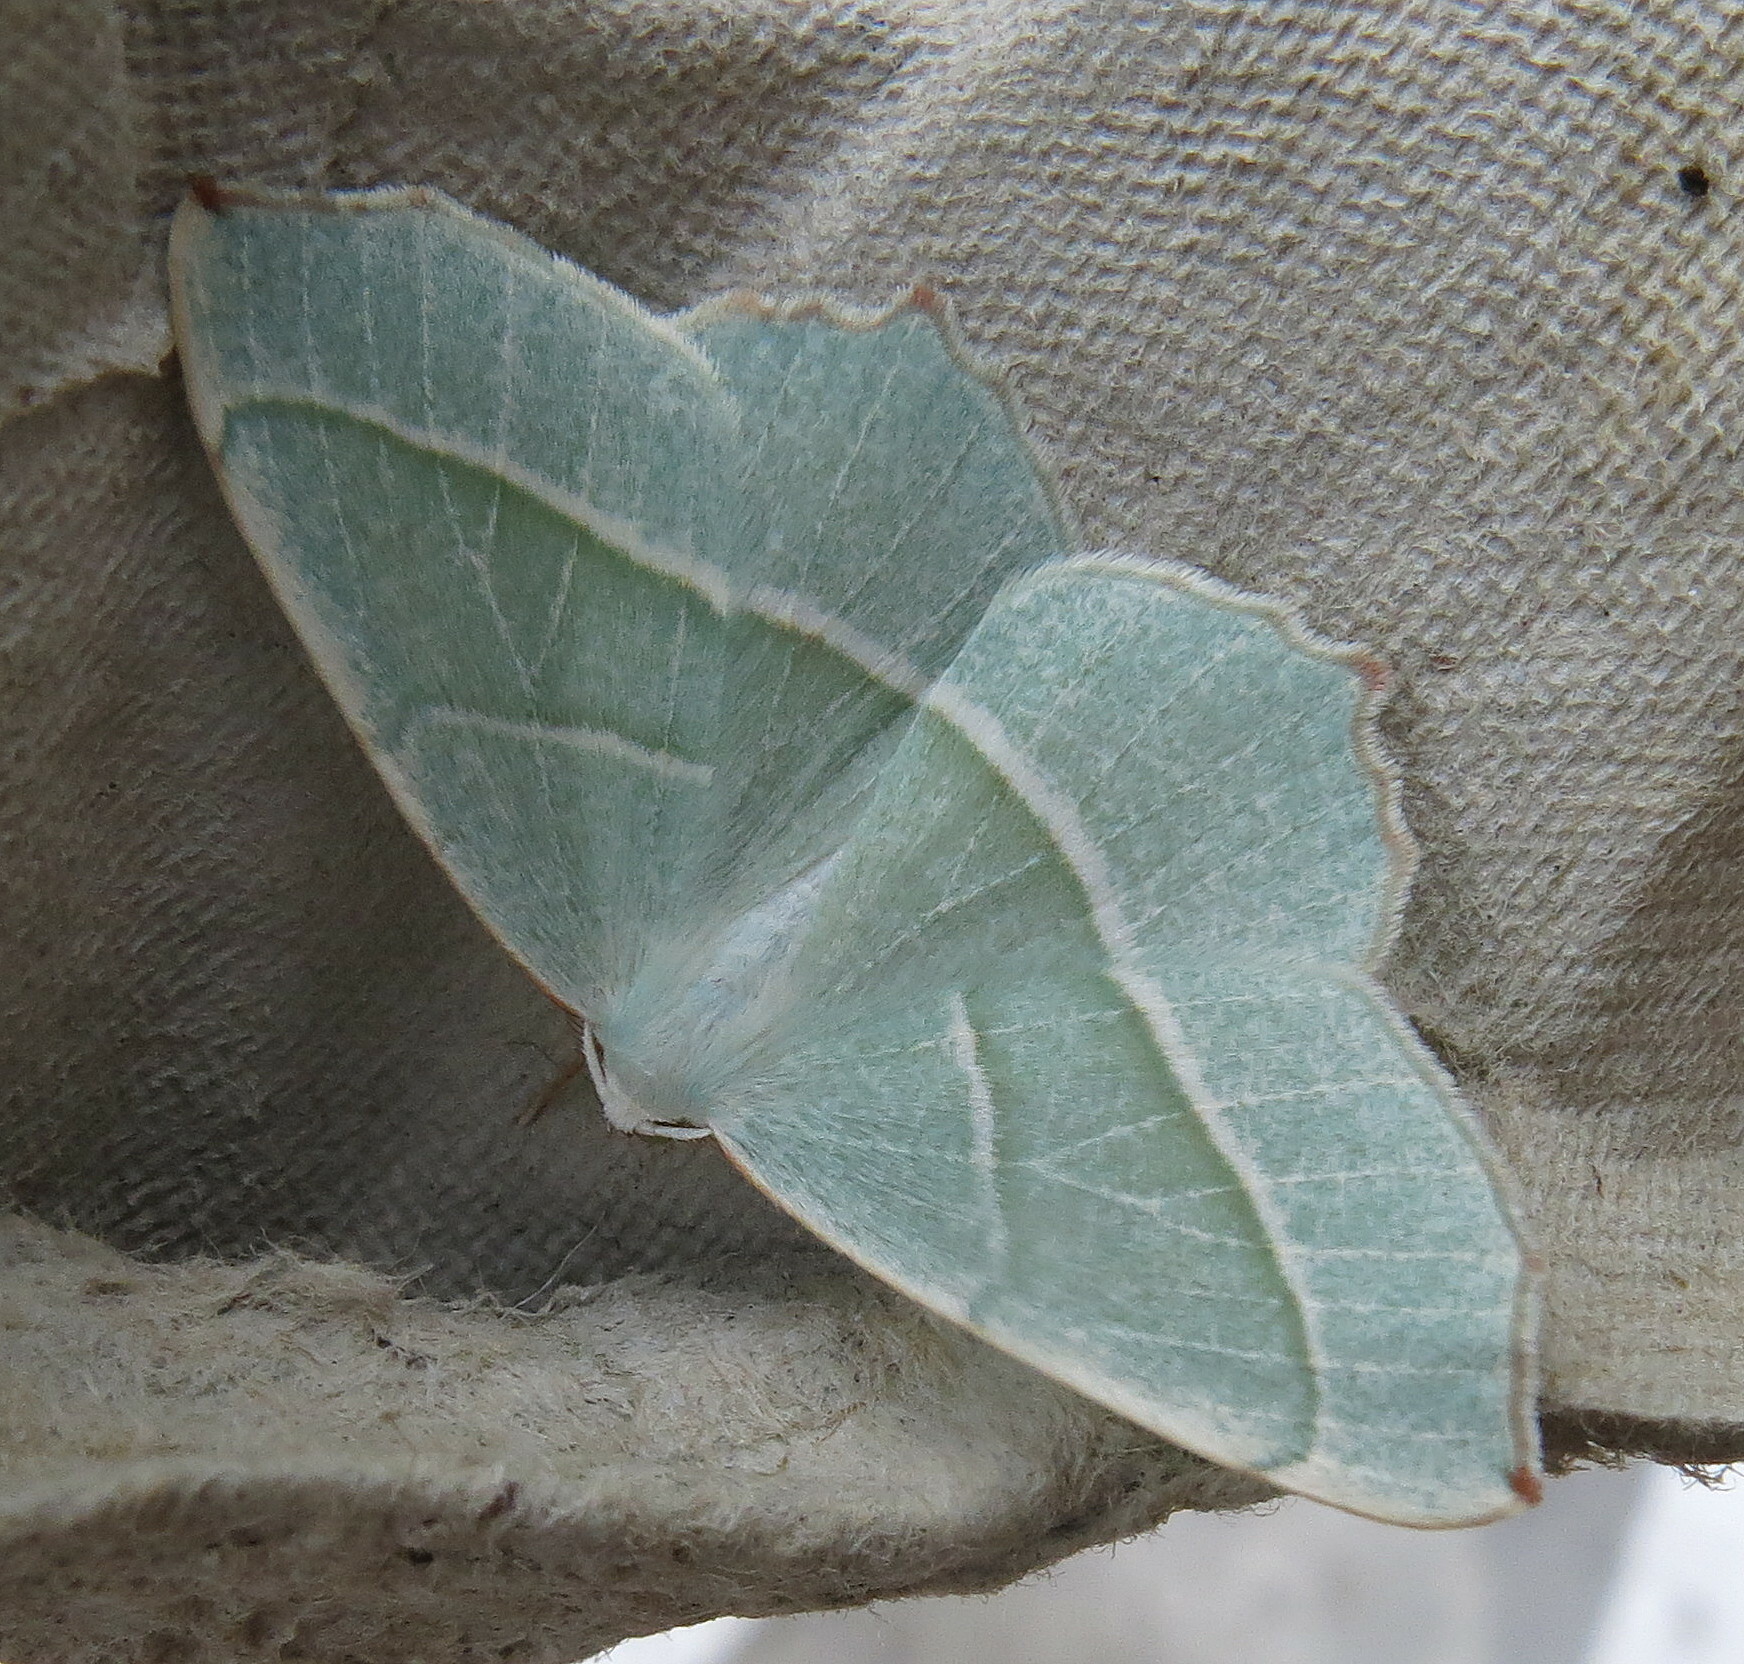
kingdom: Animalia
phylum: Arthropoda
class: Insecta
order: Lepidoptera
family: Geometridae
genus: Campaea
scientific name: Campaea margaritaria
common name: Light emerald
